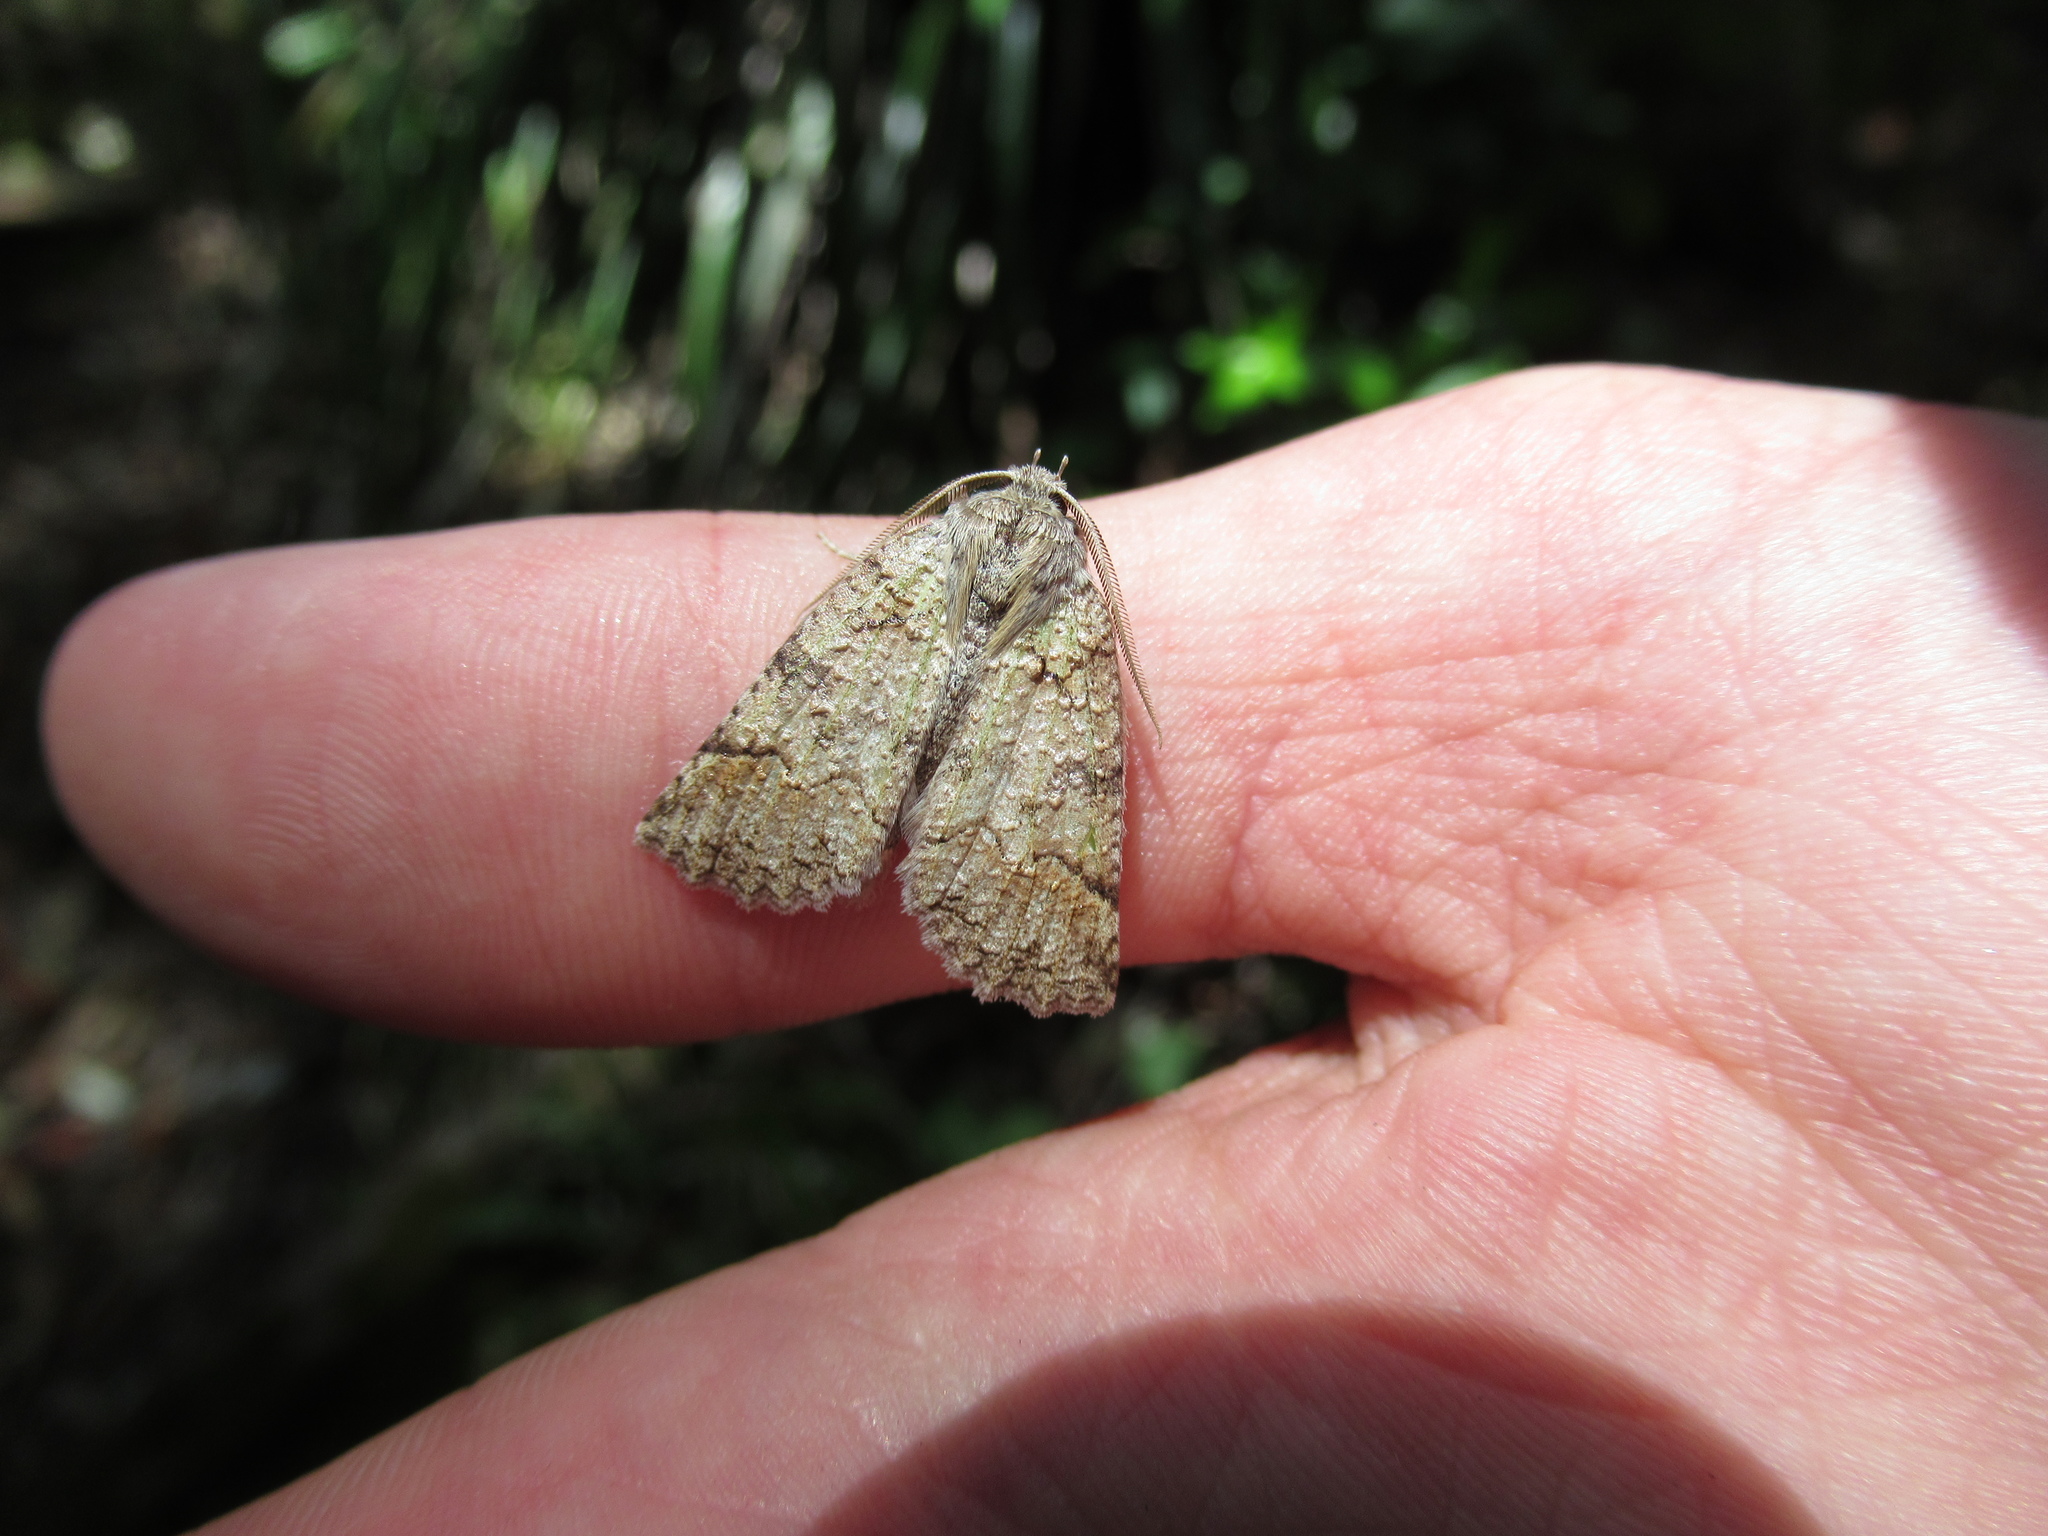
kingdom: Animalia
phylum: Arthropoda
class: Insecta
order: Lepidoptera
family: Geometridae
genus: Declana
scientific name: Declana floccosa
